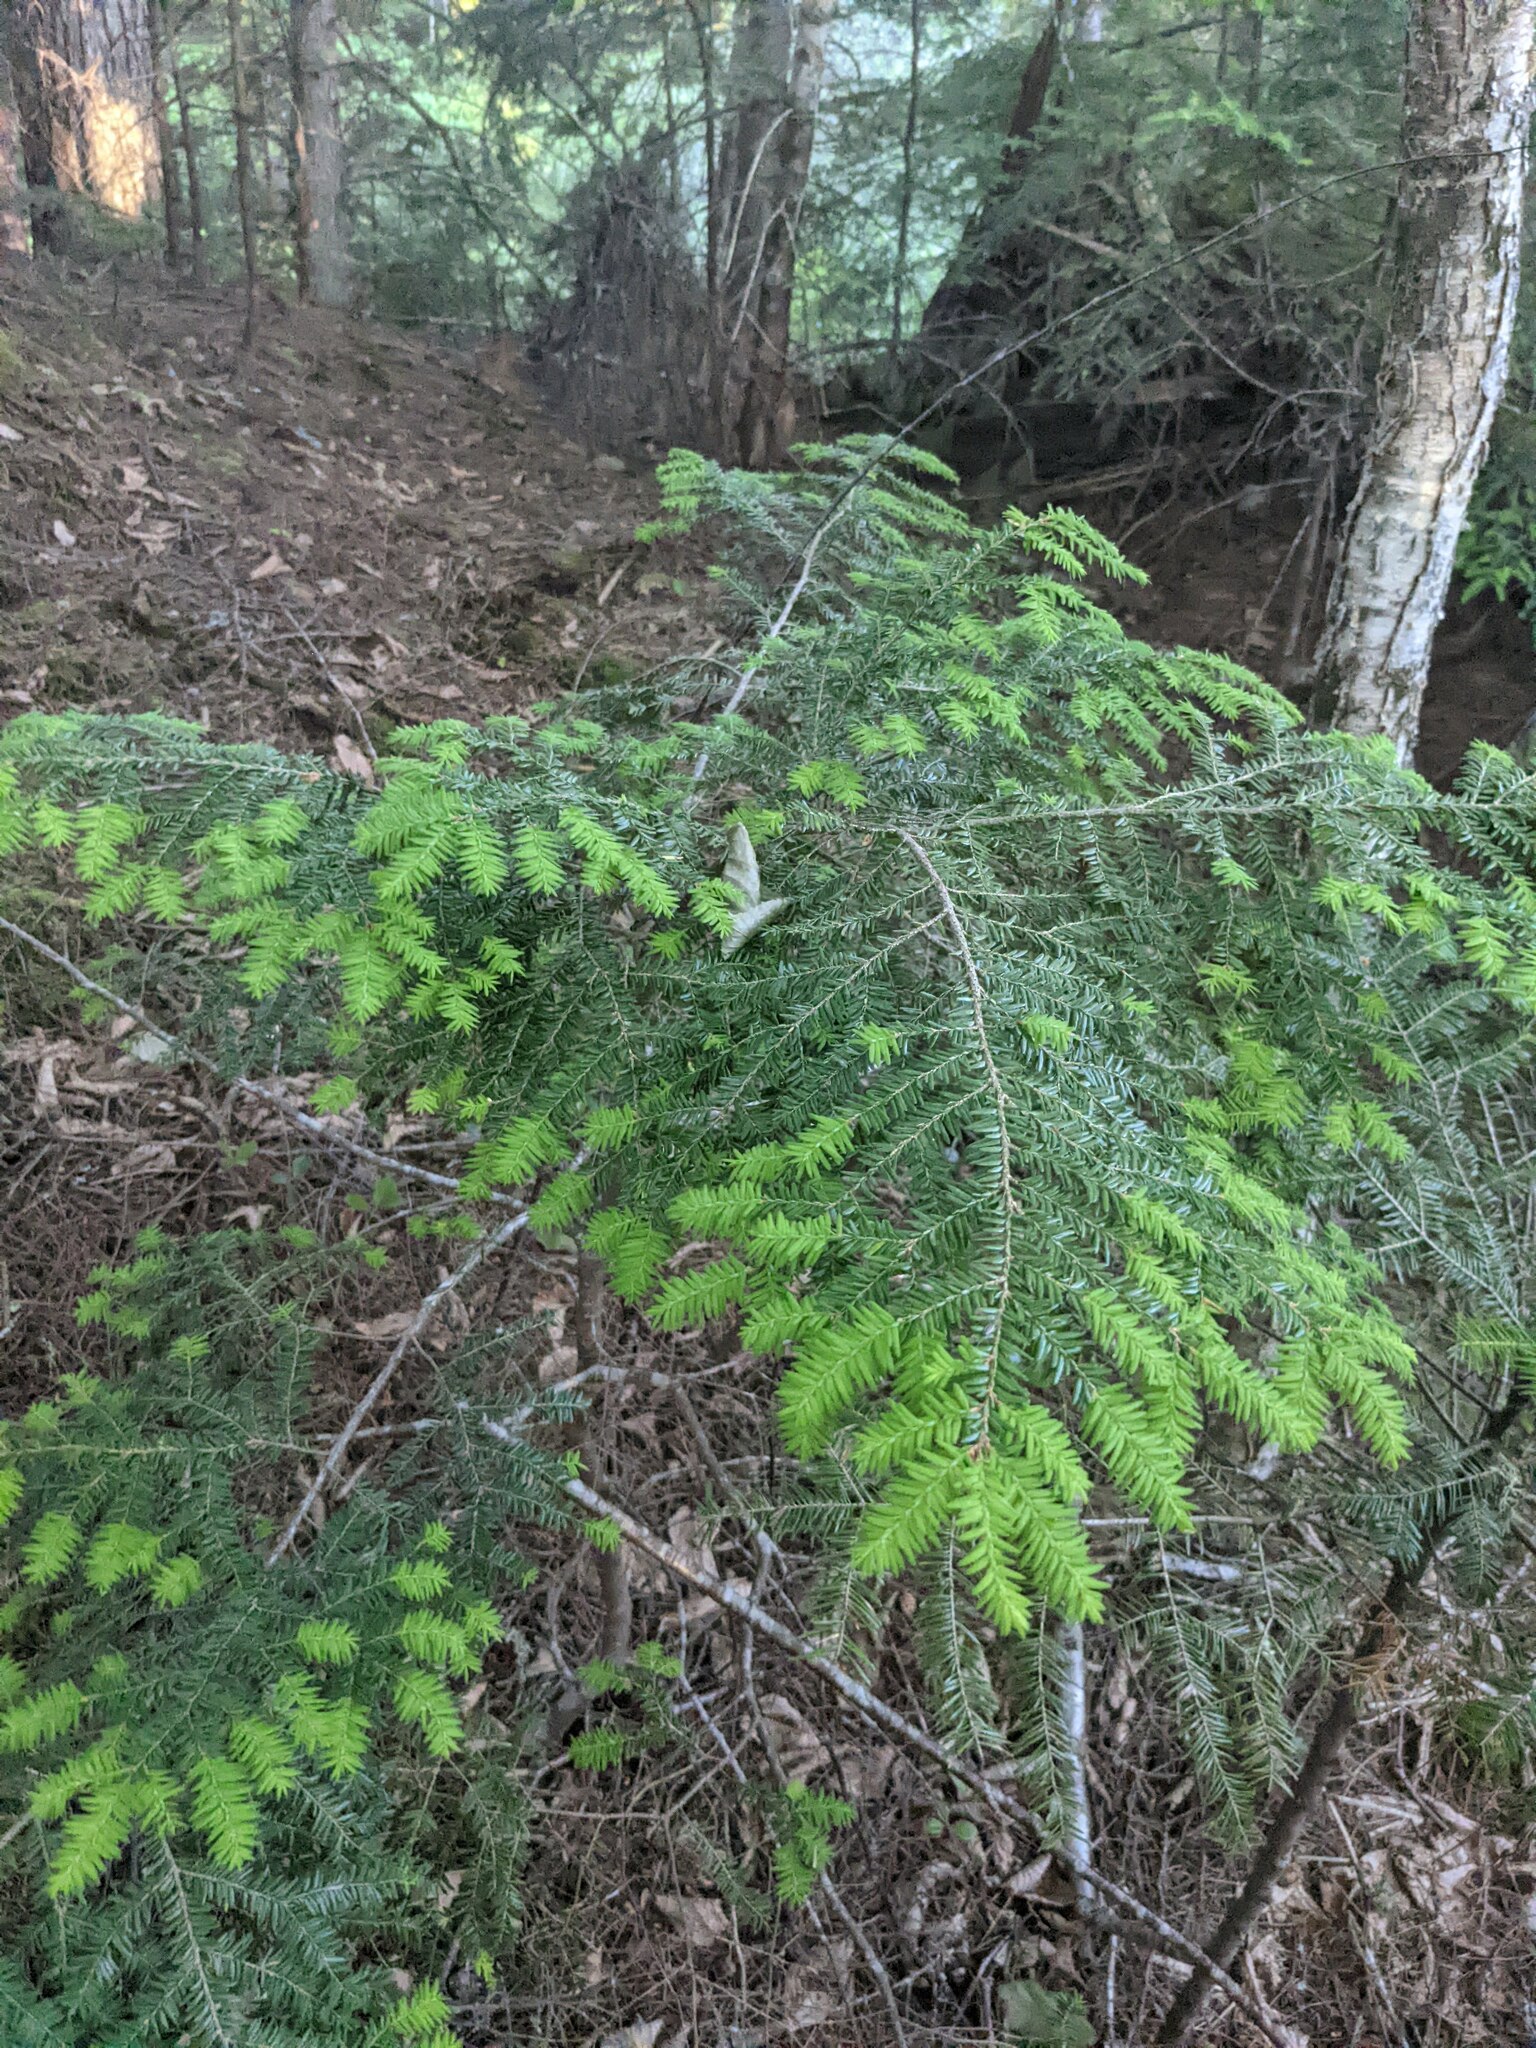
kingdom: Plantae
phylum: Tracheophyta
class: Pinopsida
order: Pinales
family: Pinaceae
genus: Tsuga
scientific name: Tsuga canadensis
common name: Eastern hemlock
